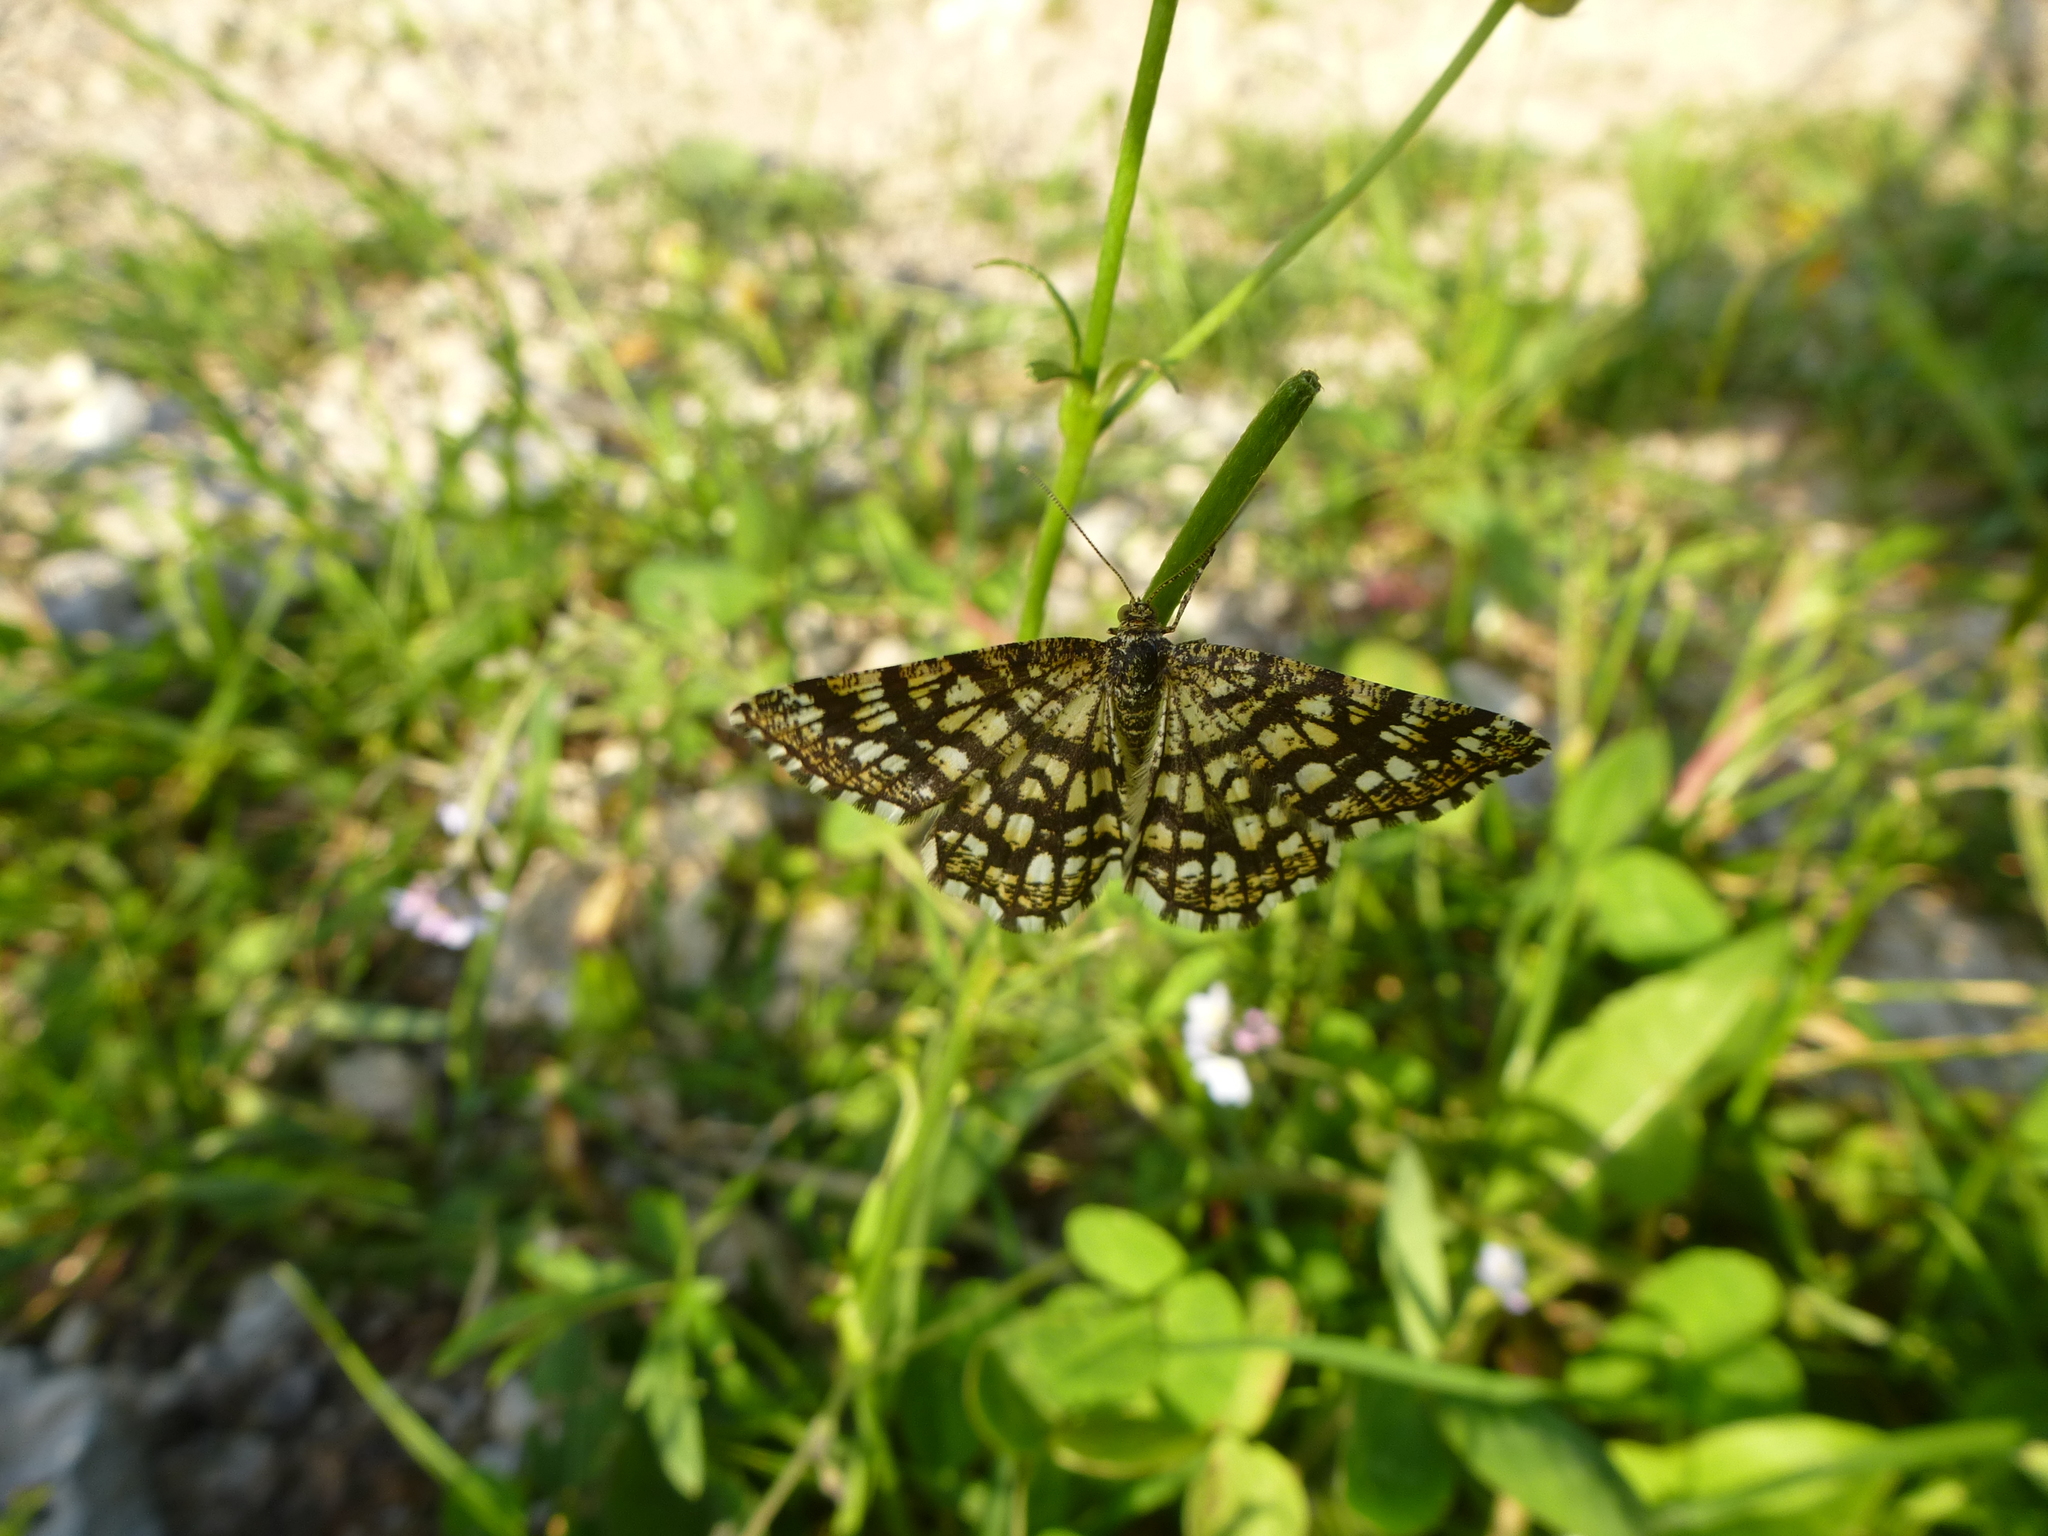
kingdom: Animalia
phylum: Arthropoda
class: Insecta
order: Lepidoptera
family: Geometridae
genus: Chiasmia
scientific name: Chiasmia clathrata
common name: Latticed heath
